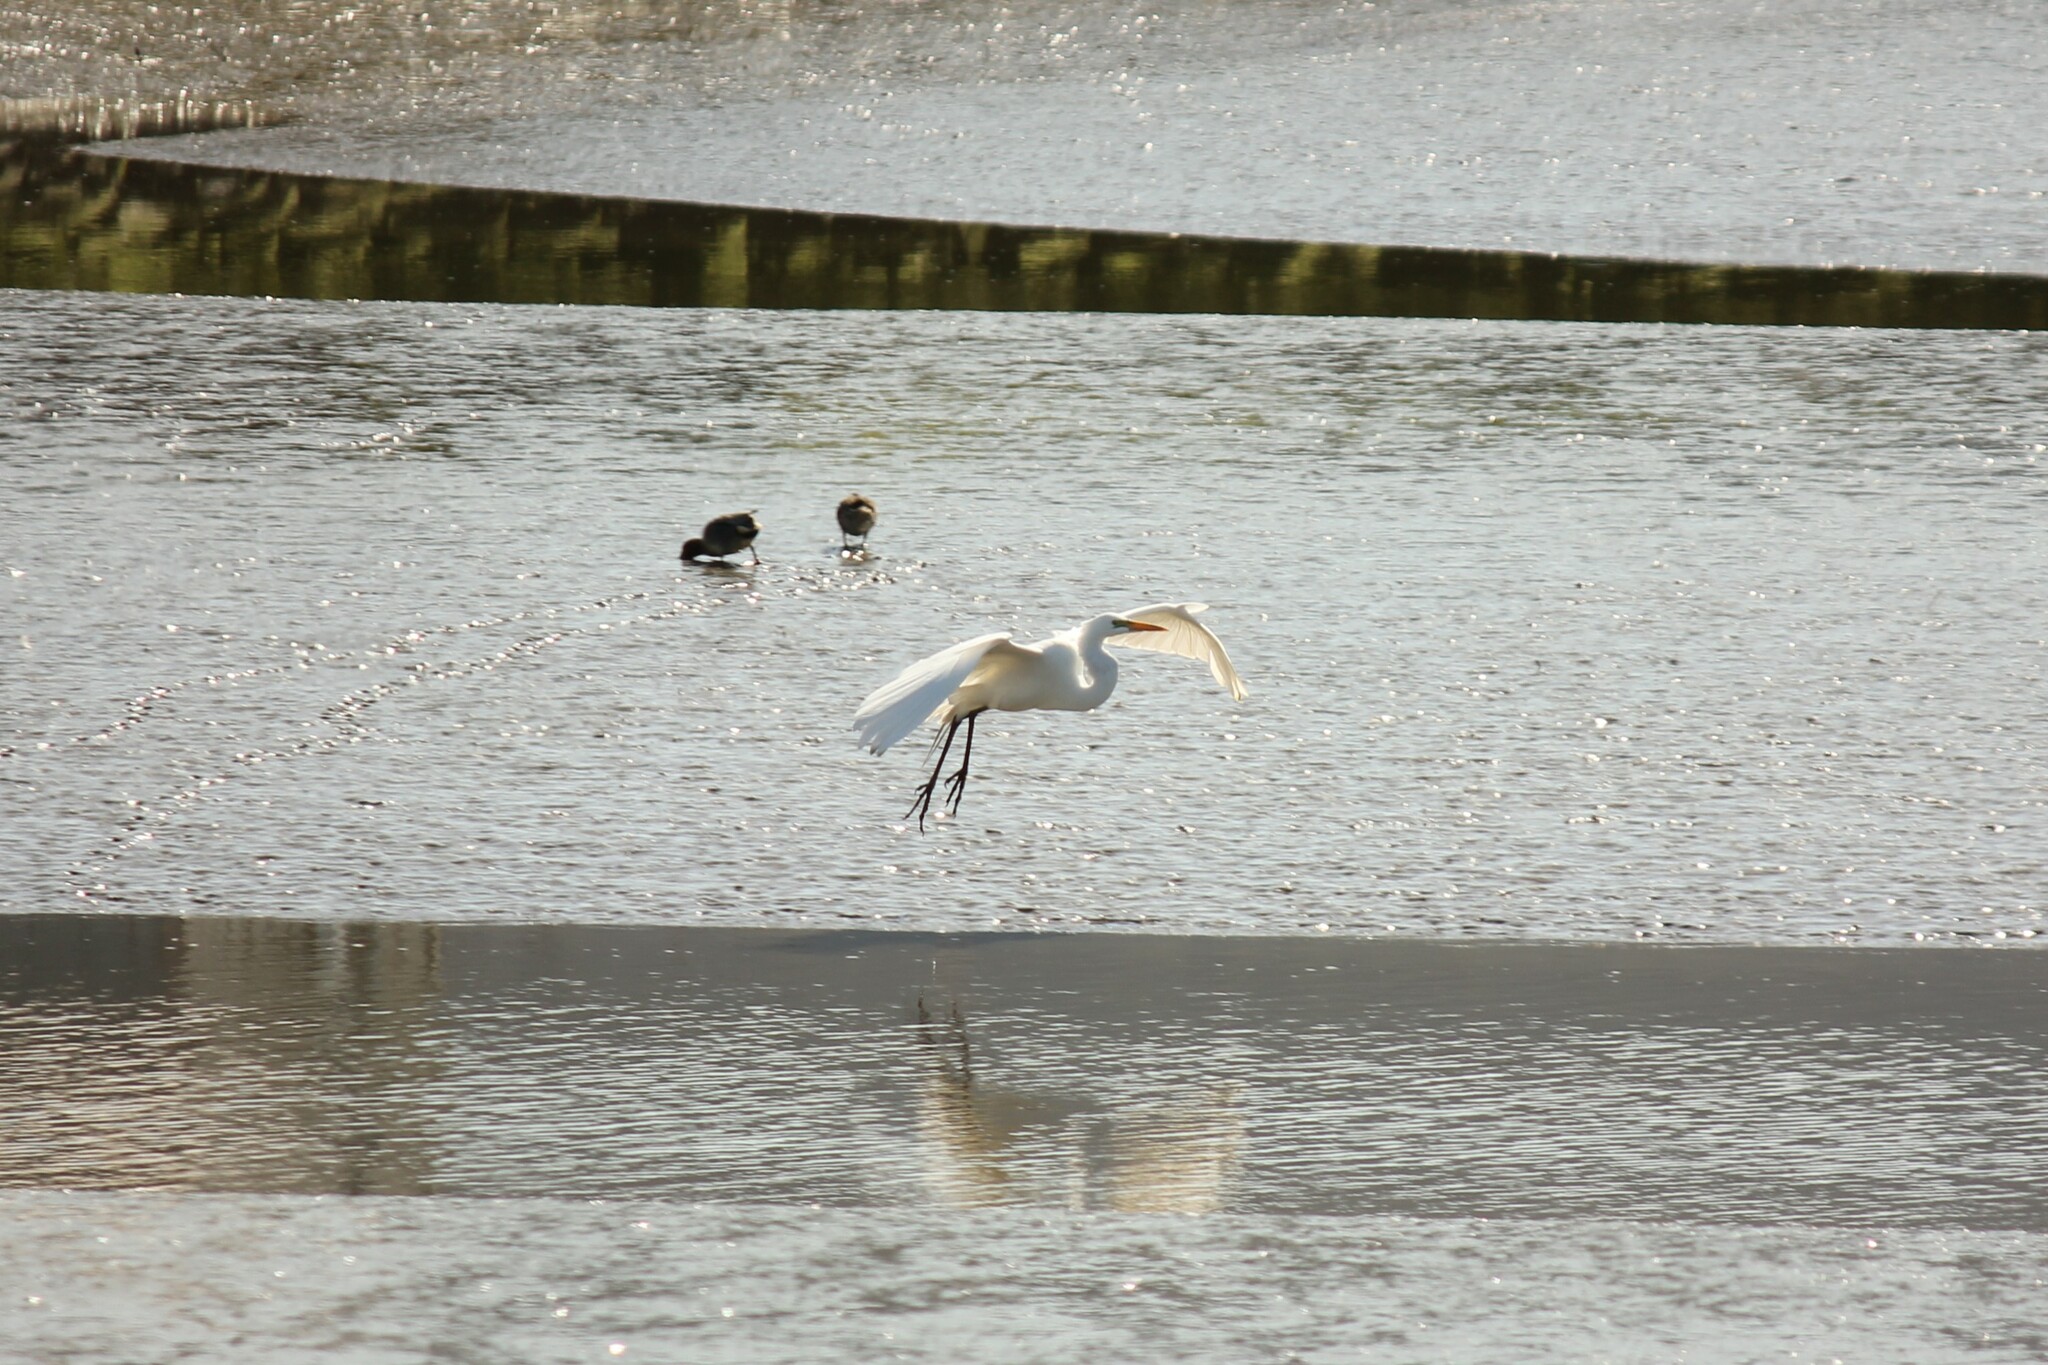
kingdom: Animalia
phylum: Chordata
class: Aves
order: Pelecaniformes
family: Ardeidae
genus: Ardea
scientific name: Ardea alba
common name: Great egret
